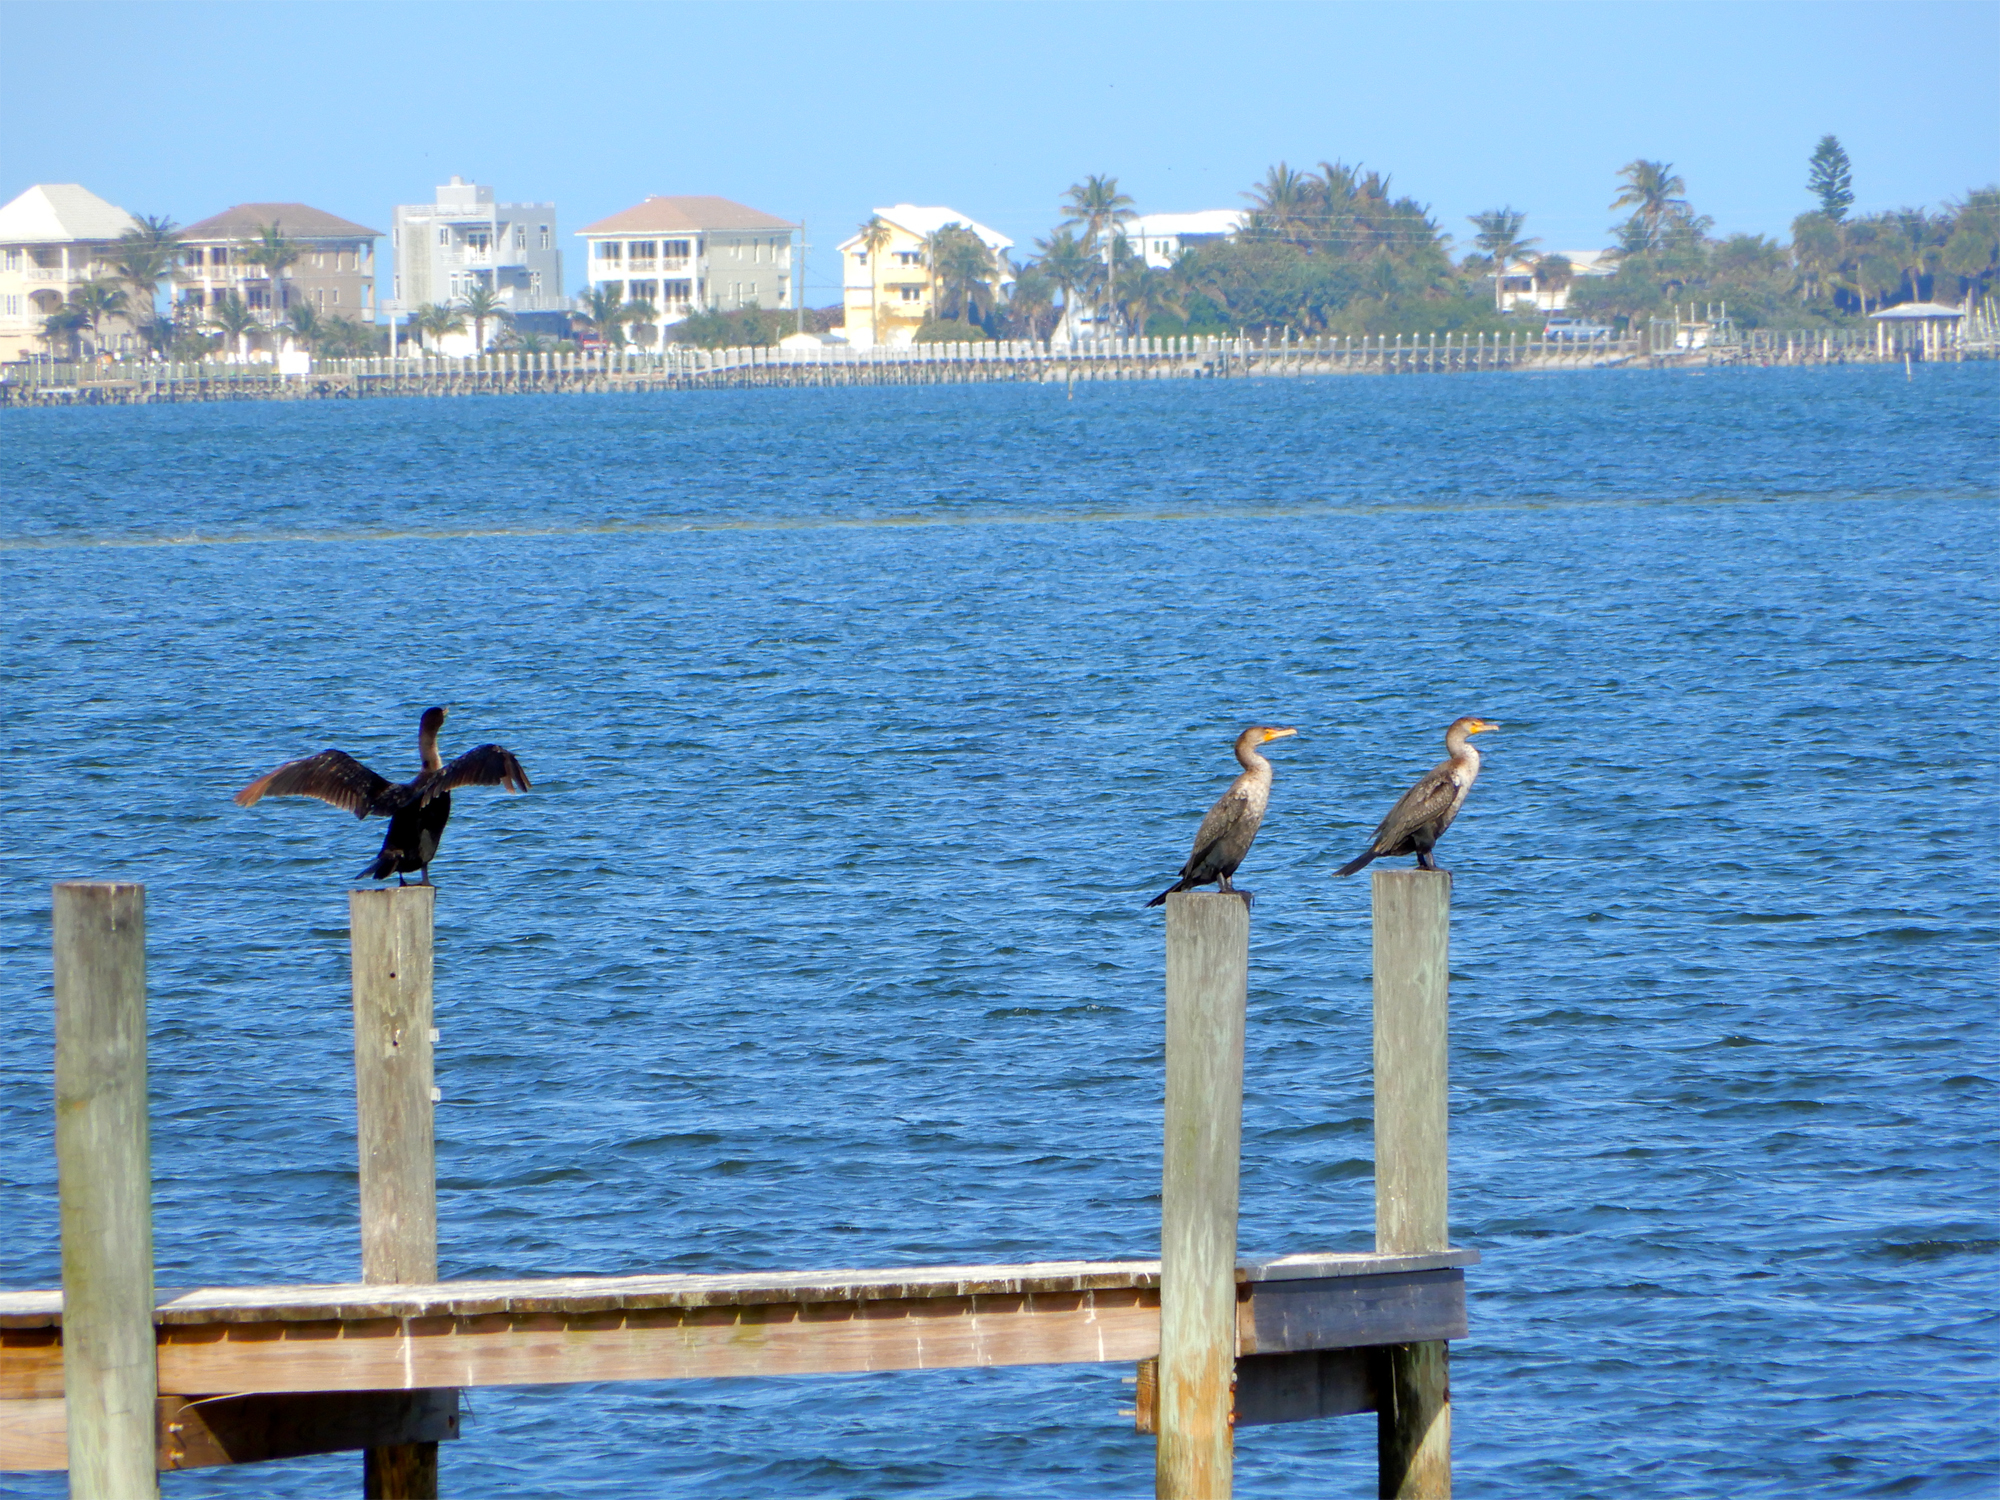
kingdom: Animalia
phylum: Chordata
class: Aves
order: Suliformes
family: Phalacrocoracidae
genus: Phalacrocorax
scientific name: Phalacrocorax auritus
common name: Double-crested cormorant
